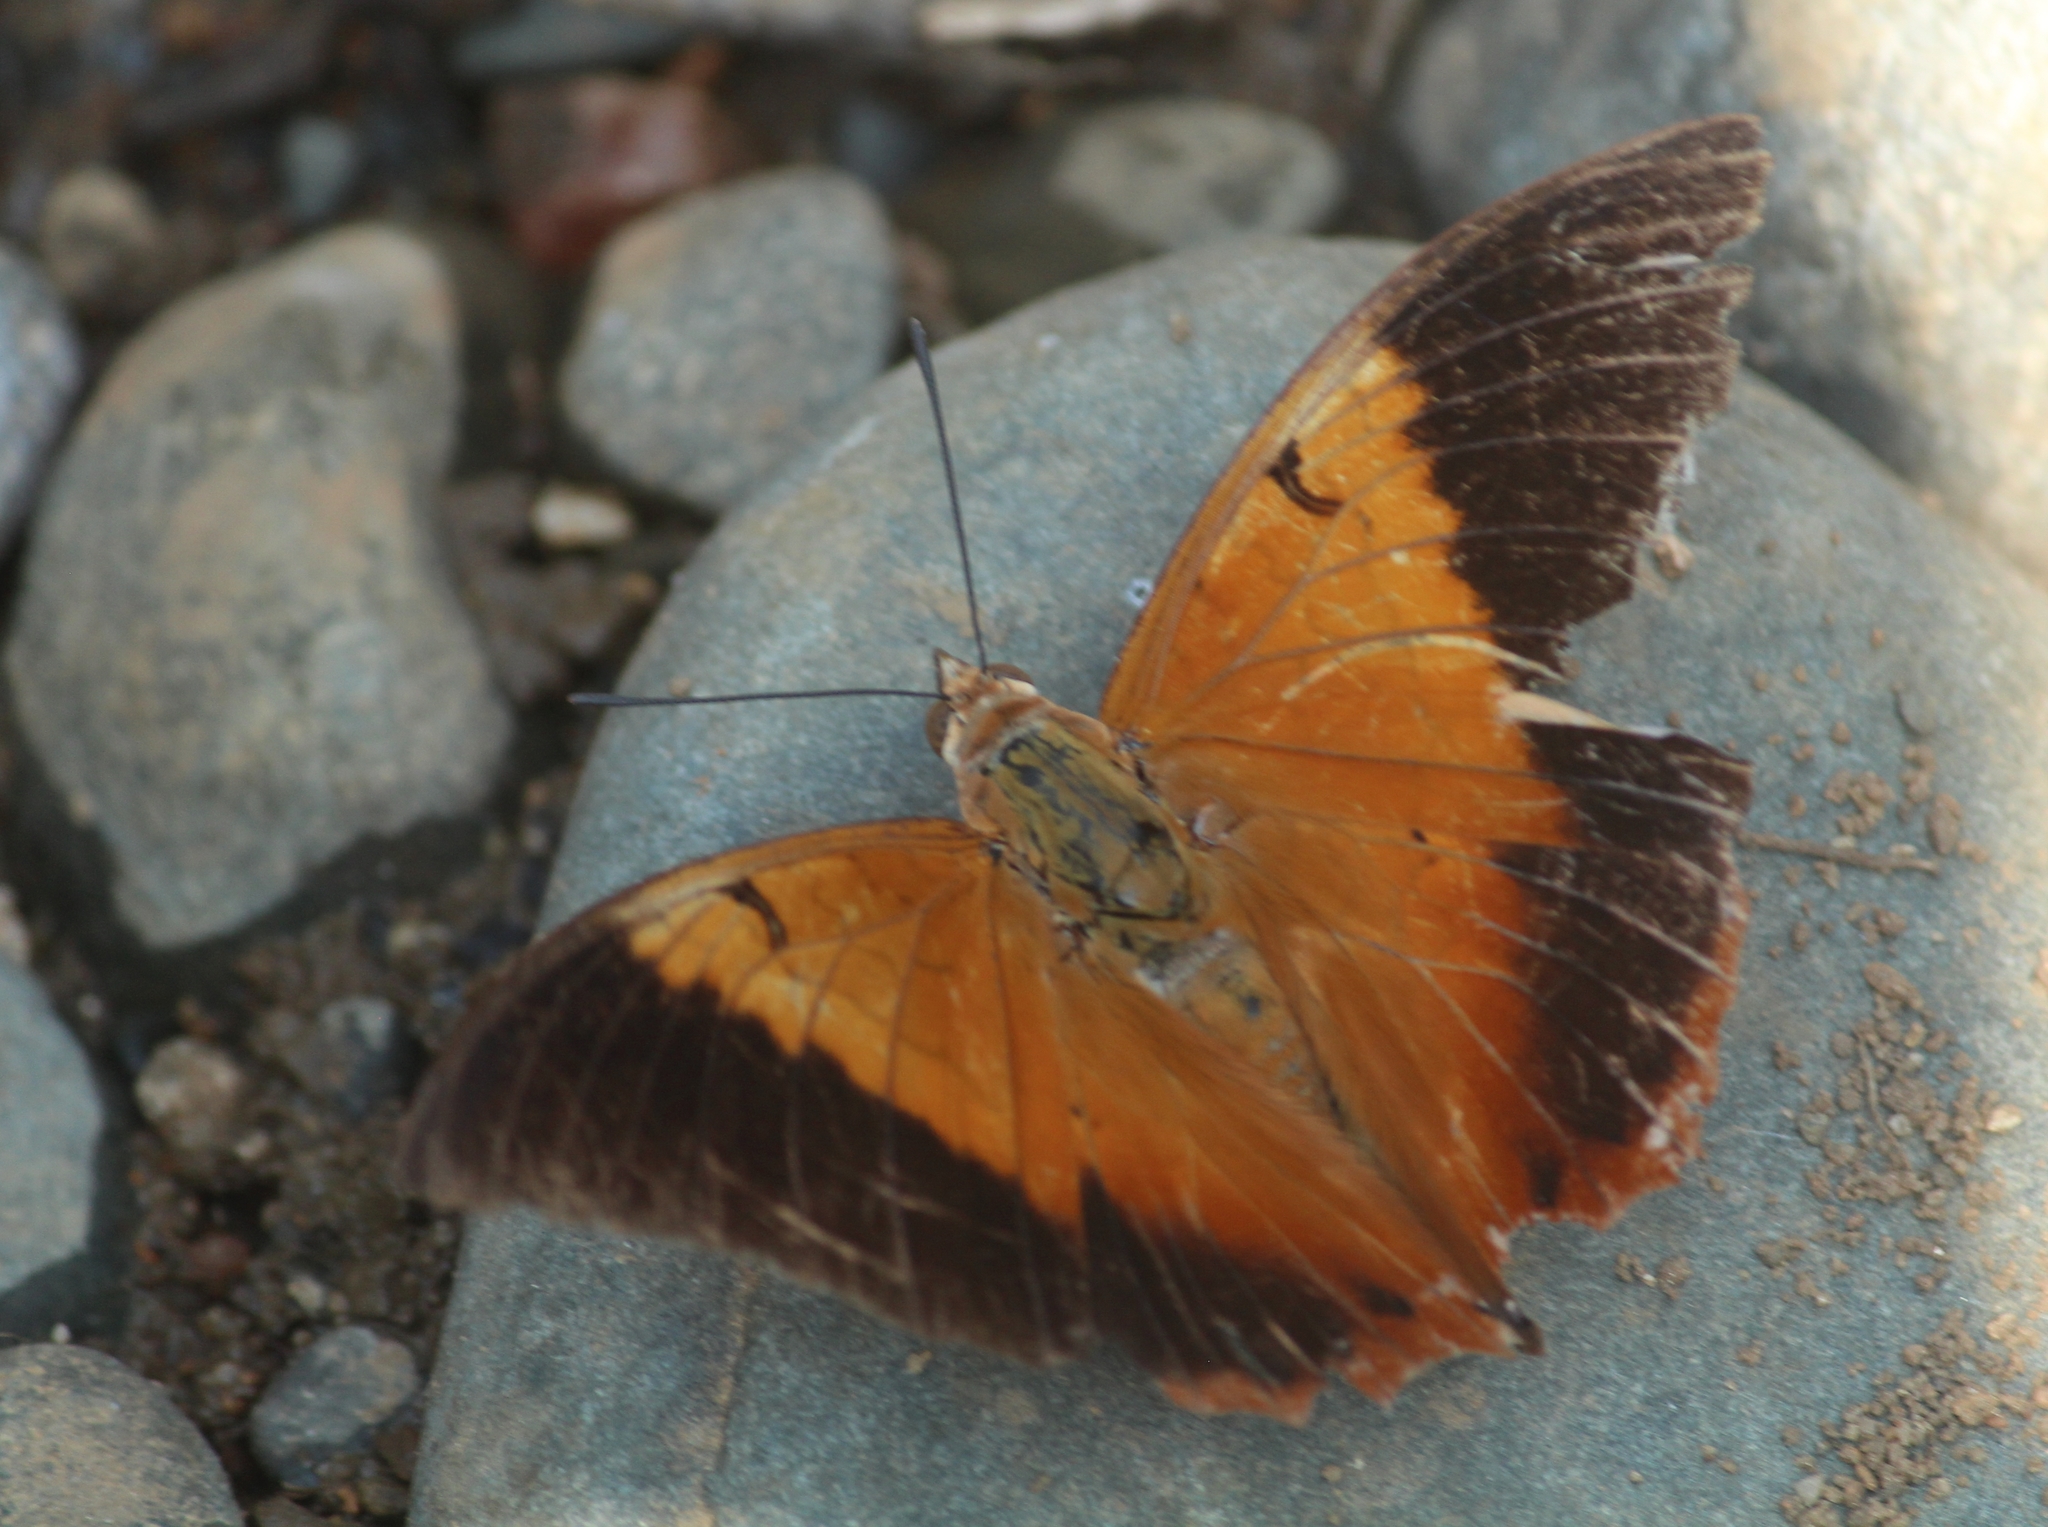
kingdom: Animalia
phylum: Arthropoda
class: Insecta
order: Lepidoptera
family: Nymphalidae
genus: Charaxes
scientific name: Charaxes psaphon
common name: Plain tawny rajah
